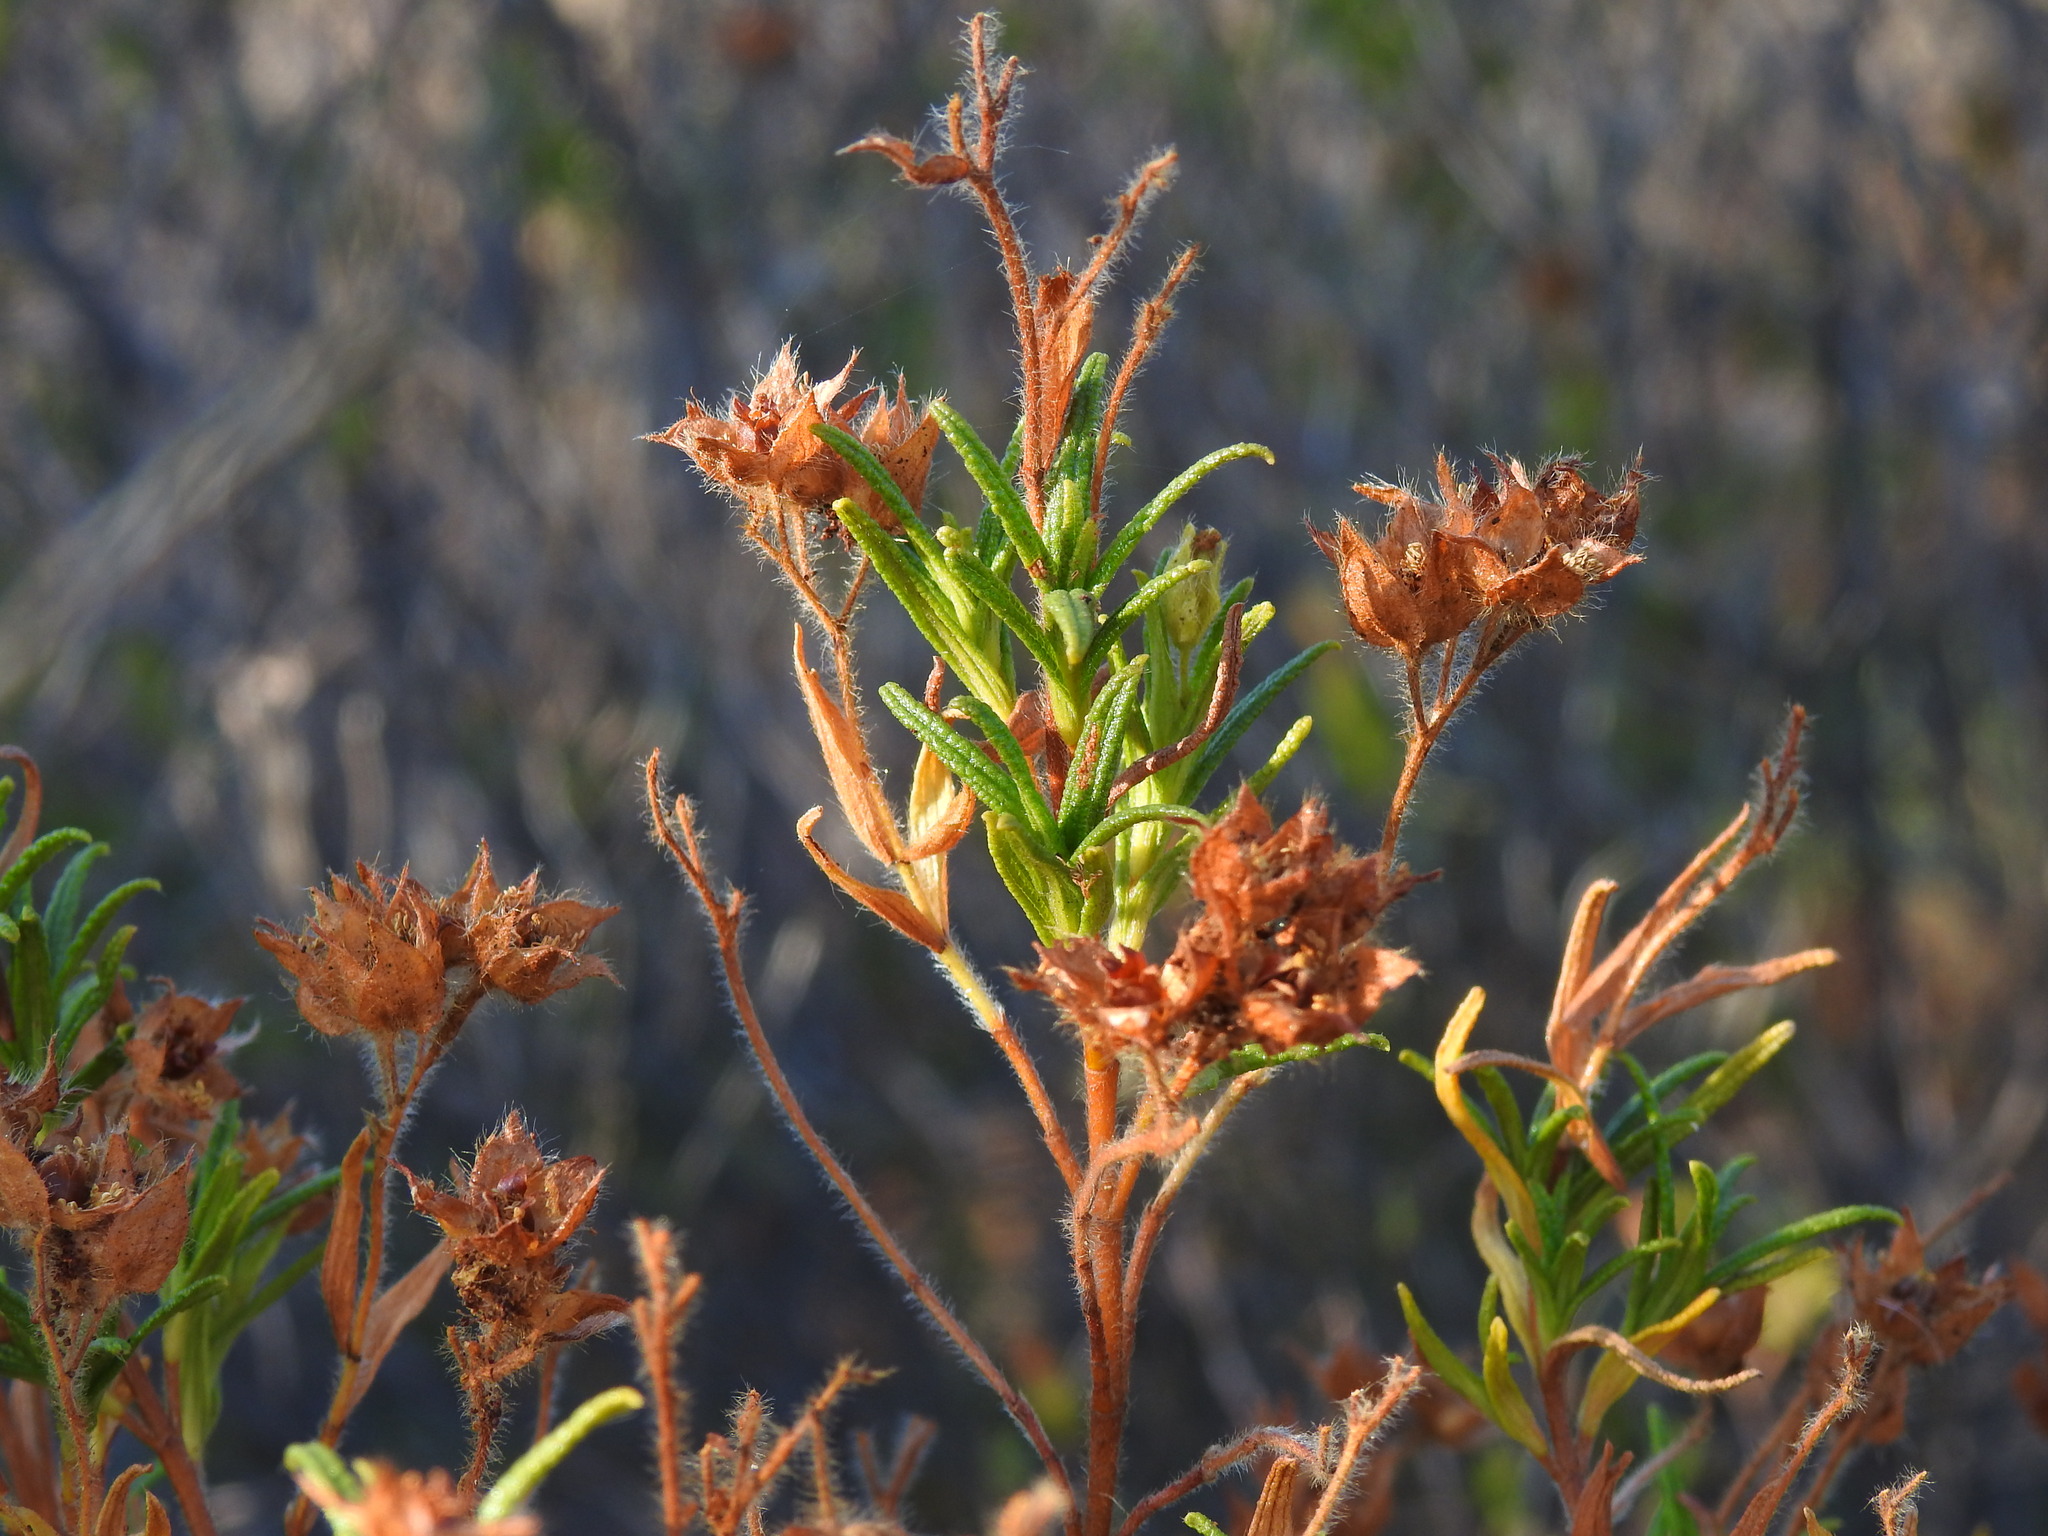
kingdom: Plantae
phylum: Tracheophyta
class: Magnoliopsida
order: Malvales
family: Cistaceae
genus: Cistus
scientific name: Cistus monspeliensis
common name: Montpelier cistus
